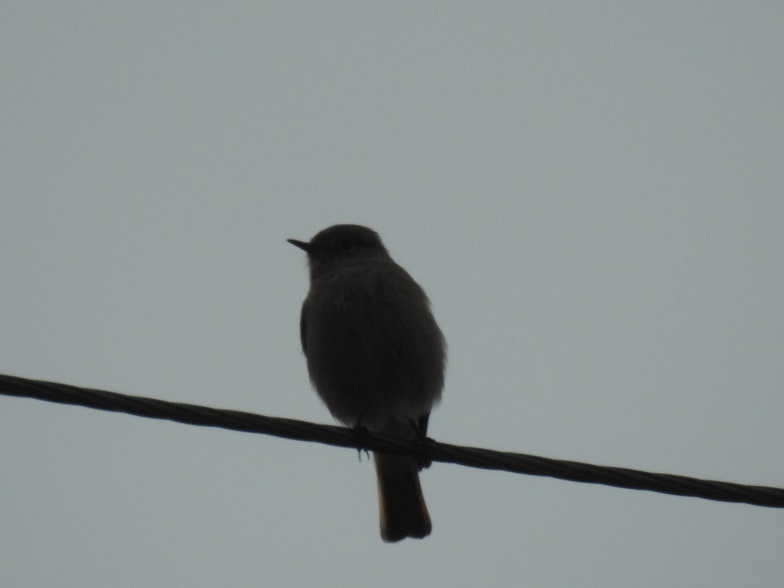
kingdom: Animalia
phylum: Chordata
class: Aves
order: Passeriformes
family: Muscicapidae
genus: Phoenicurus
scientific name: Phoenicurus ochruros
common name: Black redstart
